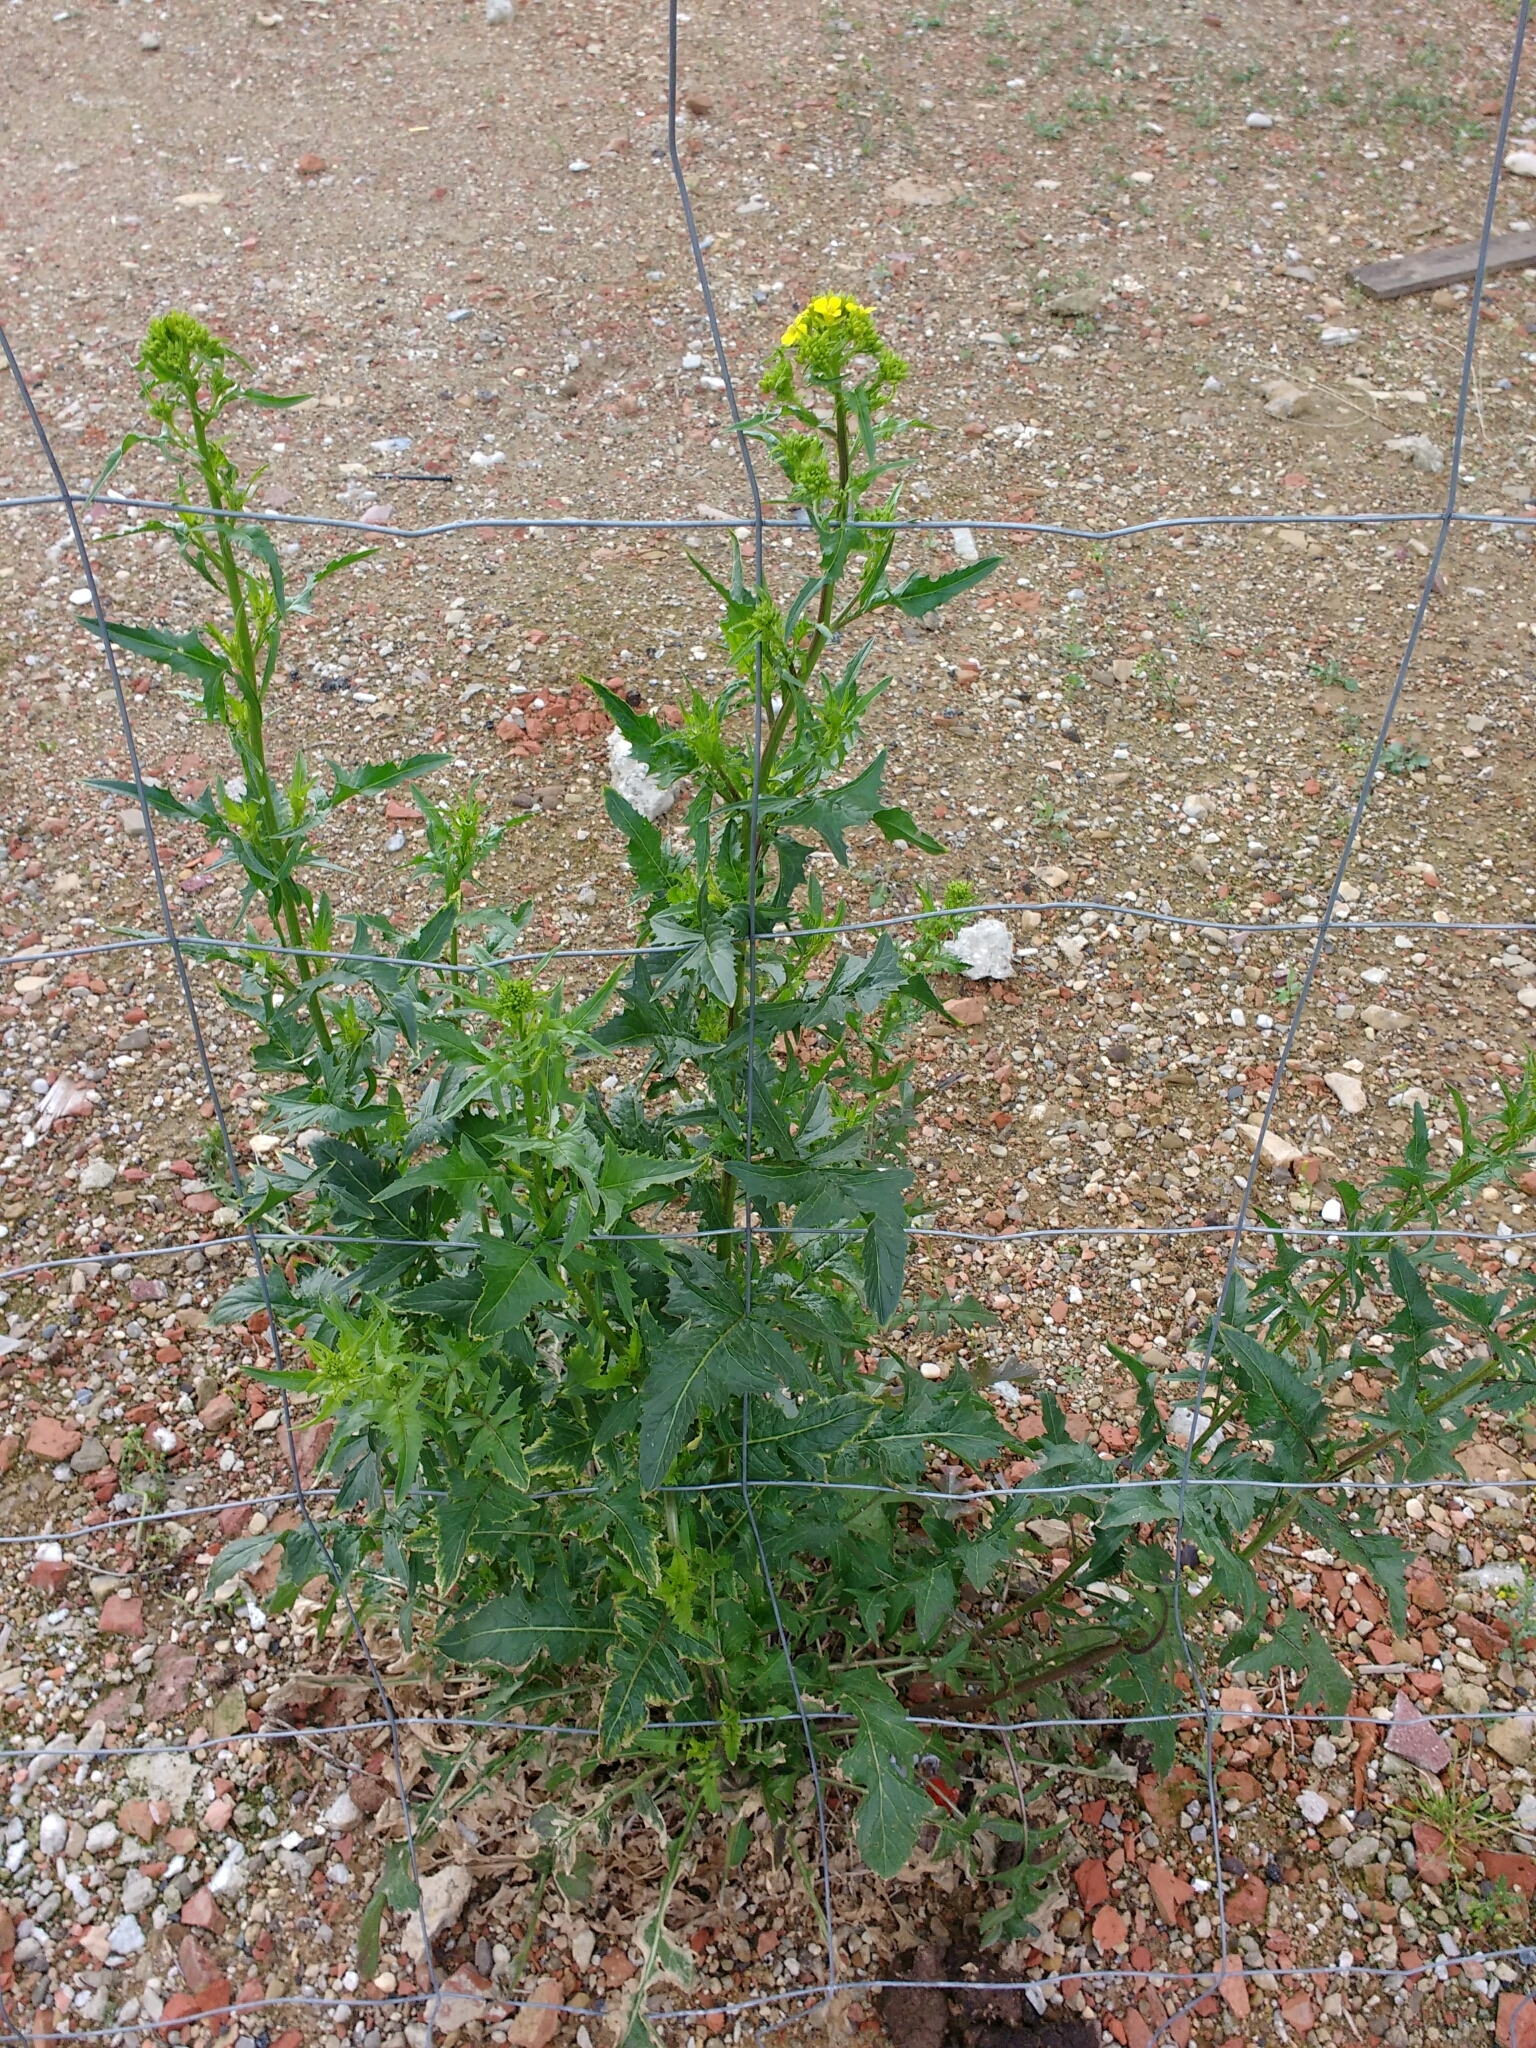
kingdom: Plantae
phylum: Tracheophyta
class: Magnoliopsida
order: Brassicales
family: Brassicaceae
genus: Sisymbrium
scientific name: Sisymbrium loeselii
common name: False london-rocket
